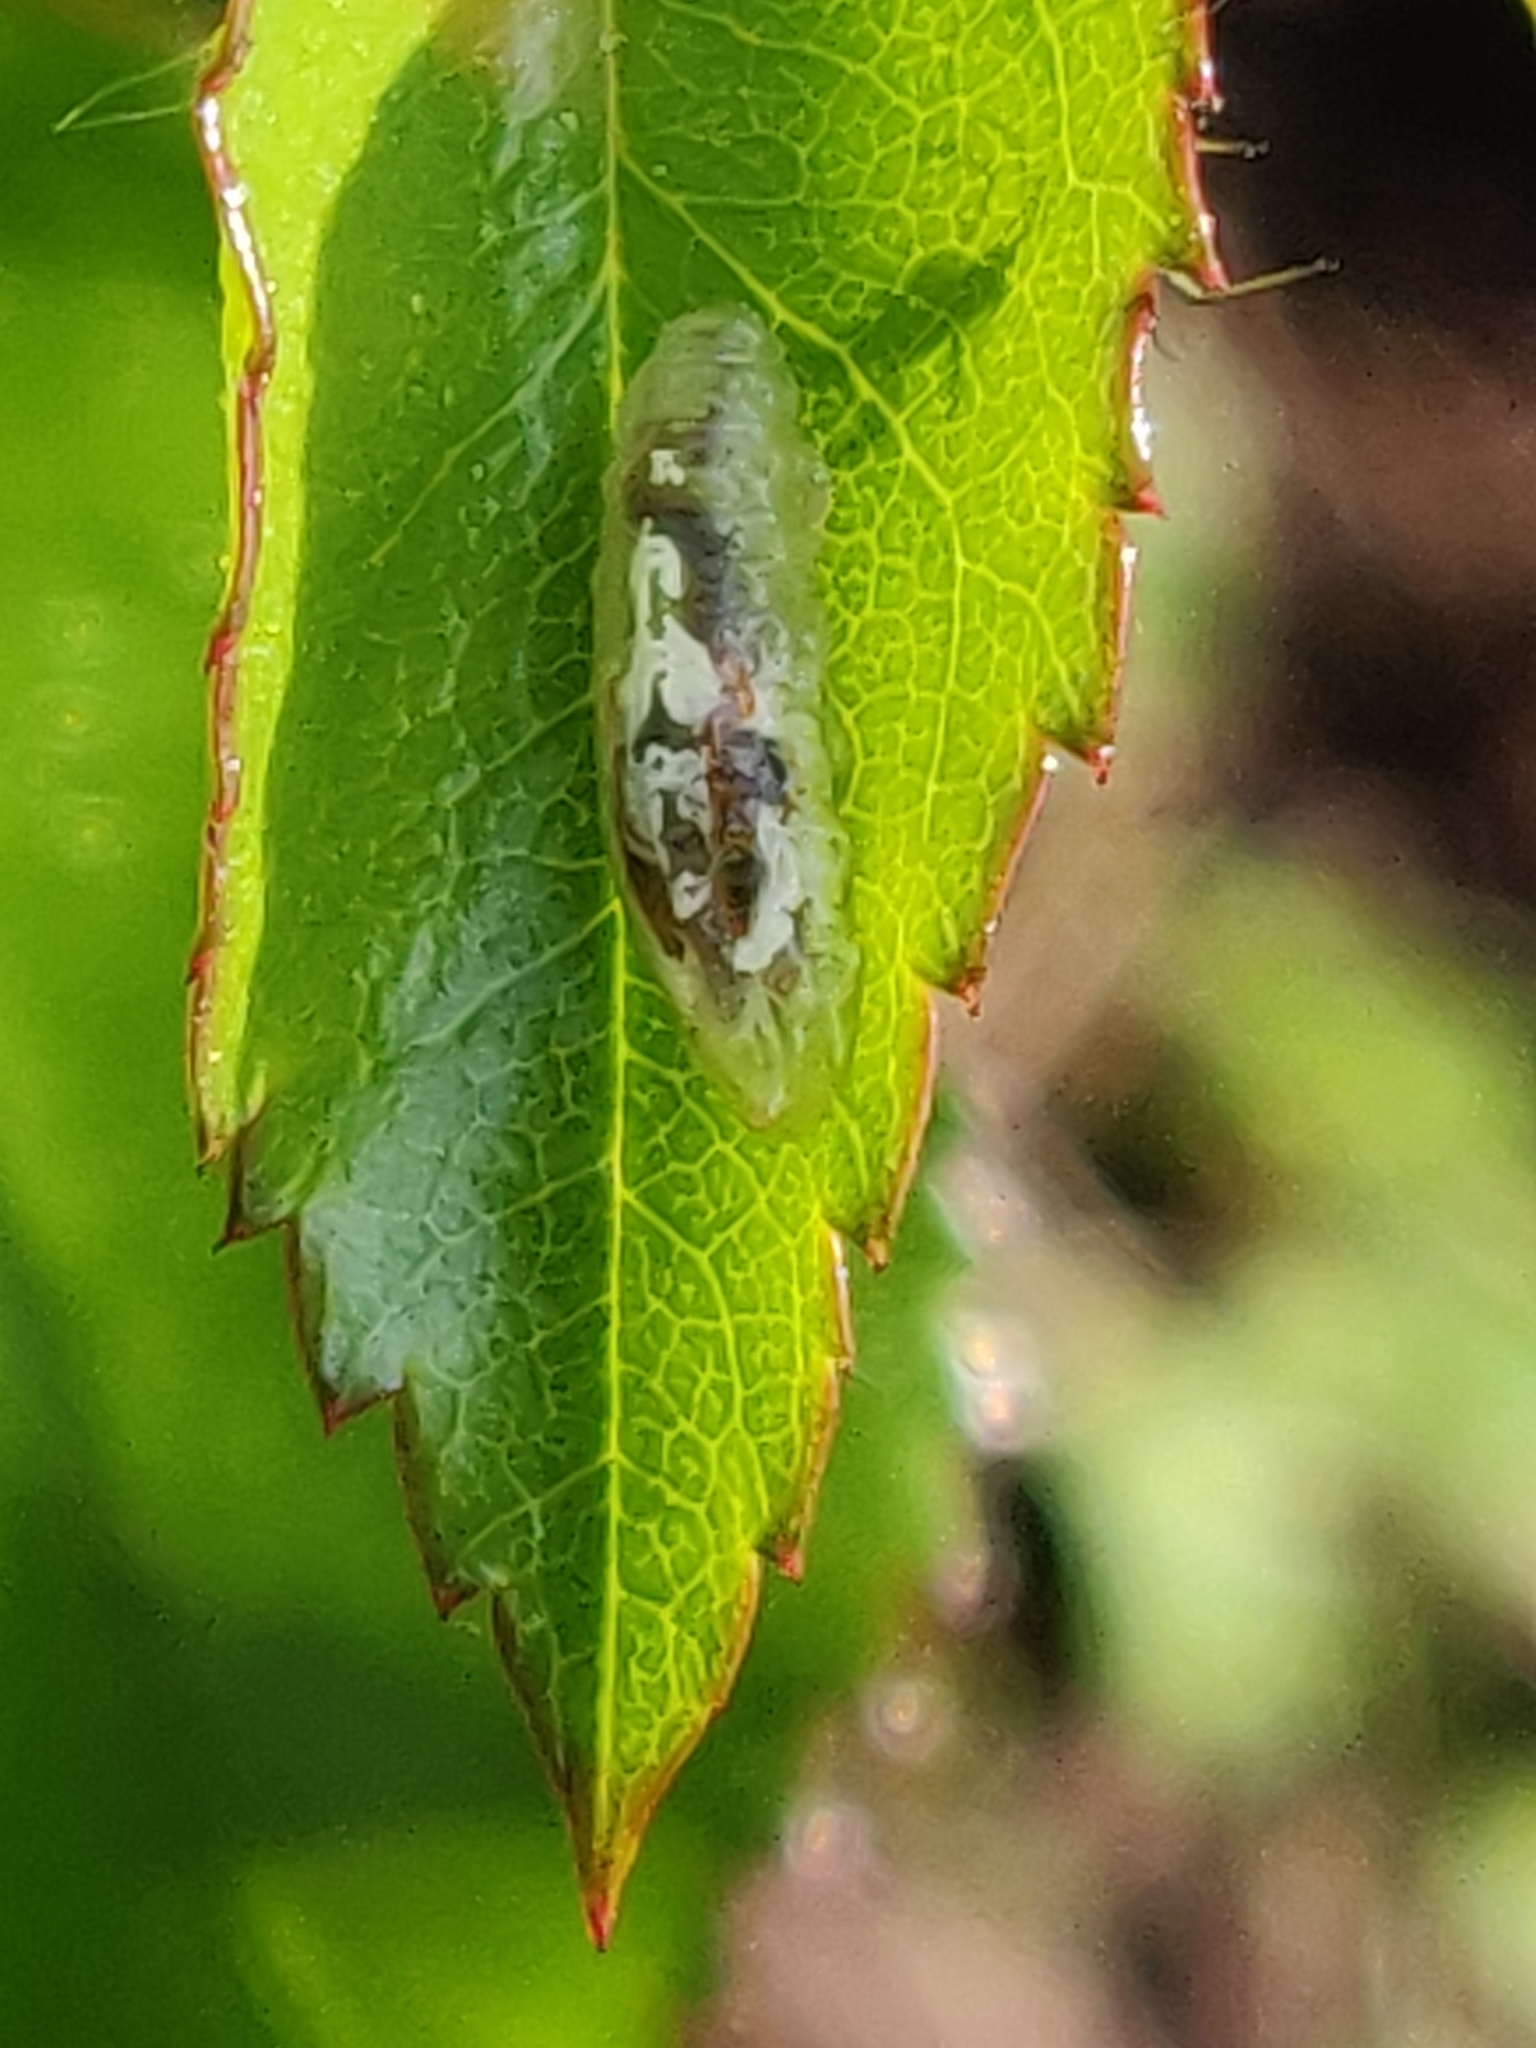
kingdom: Animalia
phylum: Arthropoda
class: Insecta
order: Diptera
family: Syrphidae
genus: Episyrphus
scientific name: Episyrphus balteatus
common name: Marmalade hoverfly
